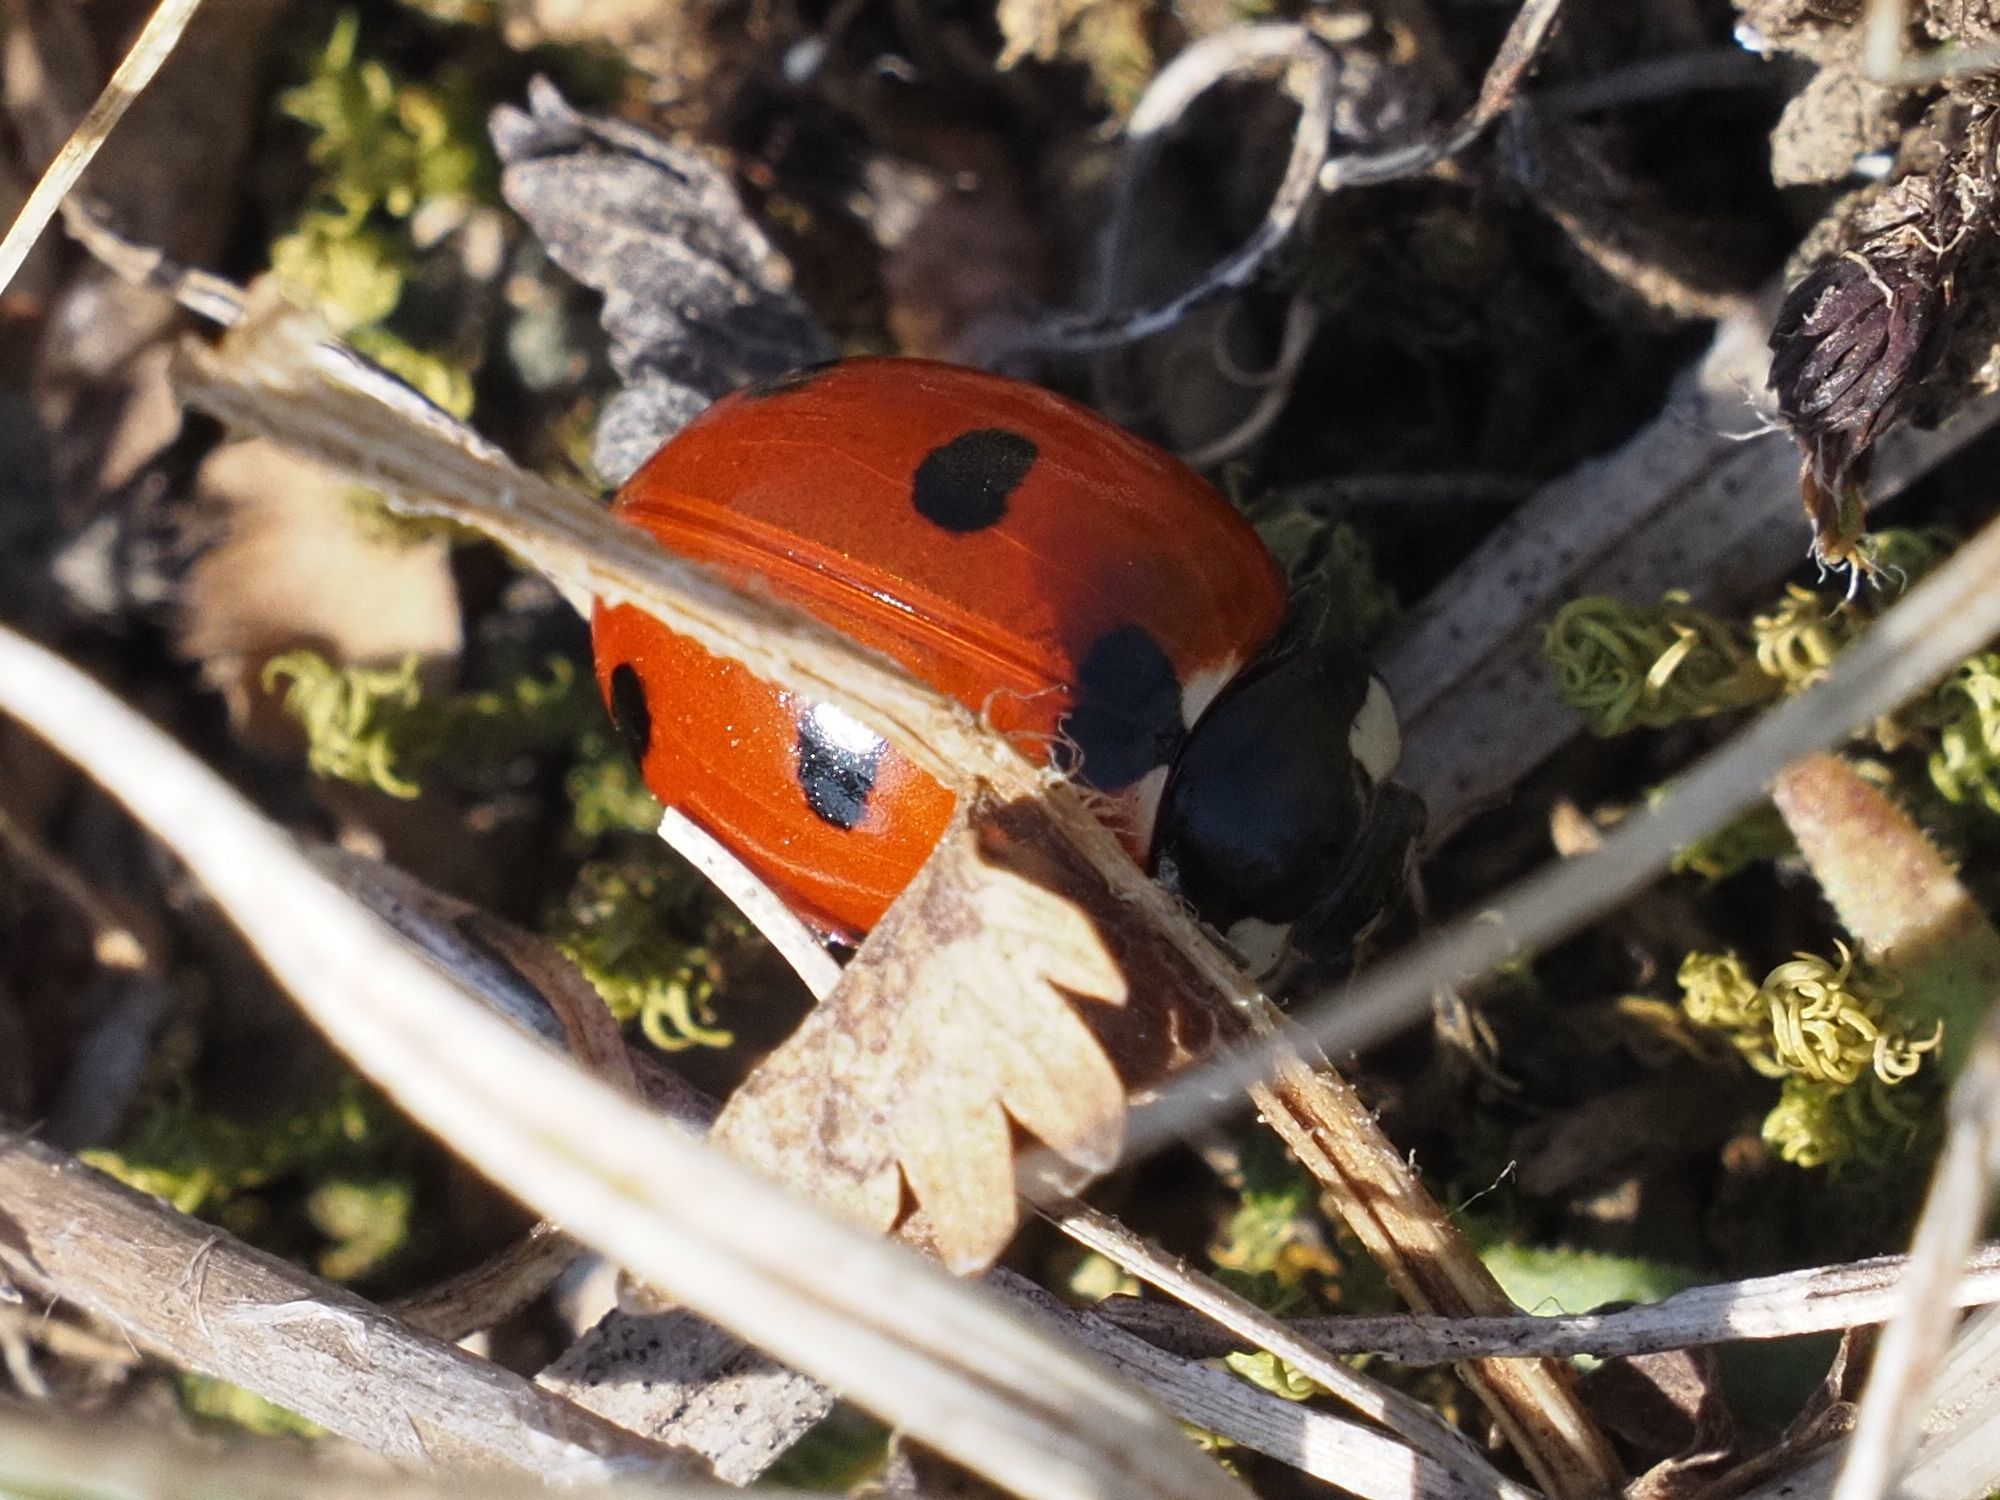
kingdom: Animalia
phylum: Arthropoda
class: Insecta
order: Coleoptera
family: Coccinellidae
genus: Coccinella
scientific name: Coccinella septempunctata
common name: Sevenspotted lady beetle
